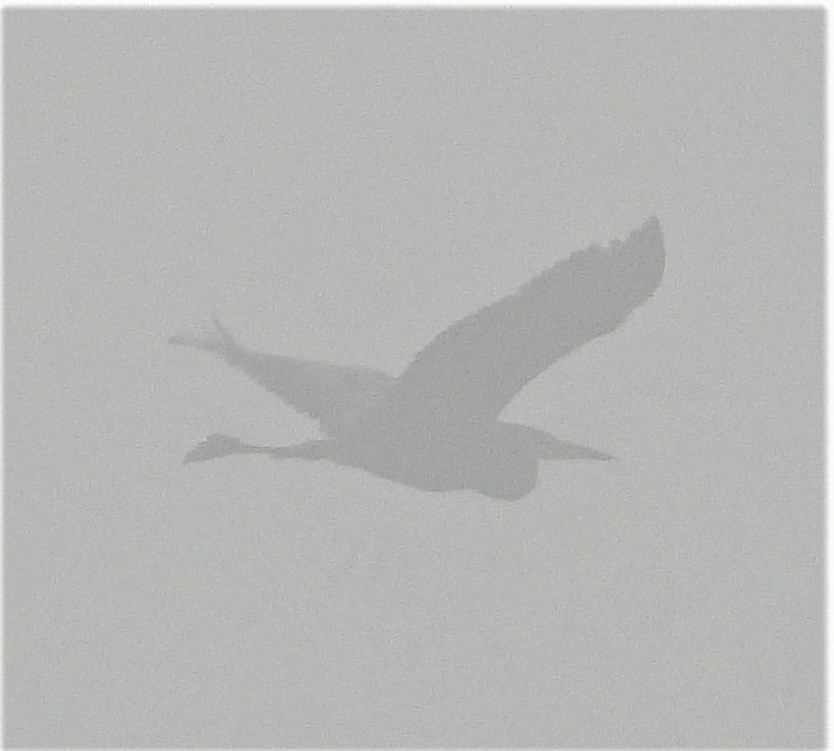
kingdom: Animalia
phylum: Chordata
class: Aves
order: Pelecaniformes
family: Ardeidae
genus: Ardea
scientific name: Ardea herodias
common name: Great blue heron
